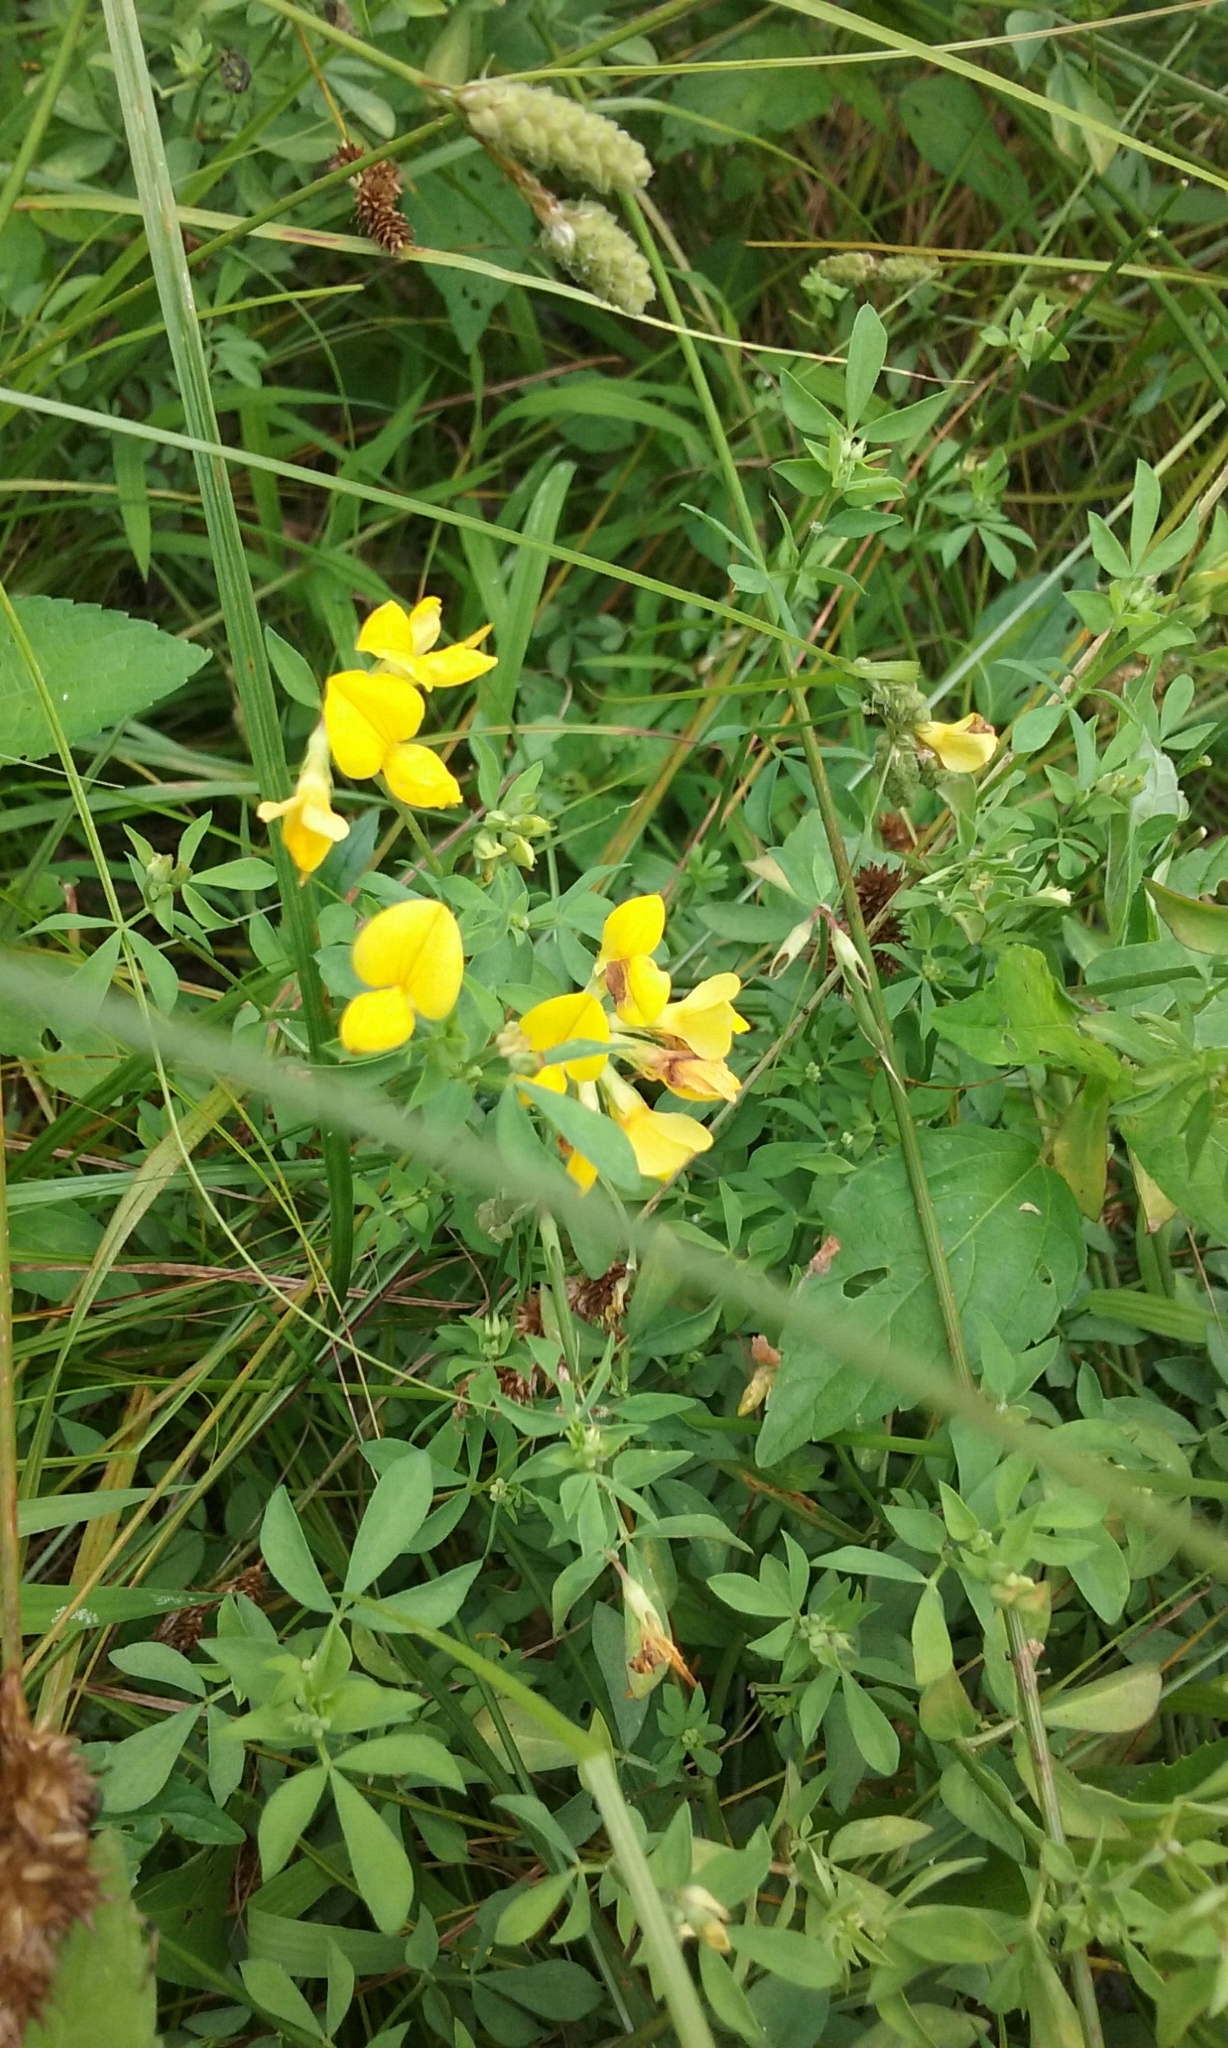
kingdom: Plantae
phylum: Tracheophyta
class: Magnoliopsida
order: Fabales
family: Fabaceae
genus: Lotus
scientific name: Lotus corniculatus
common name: Common bird's-foot-trefoil
